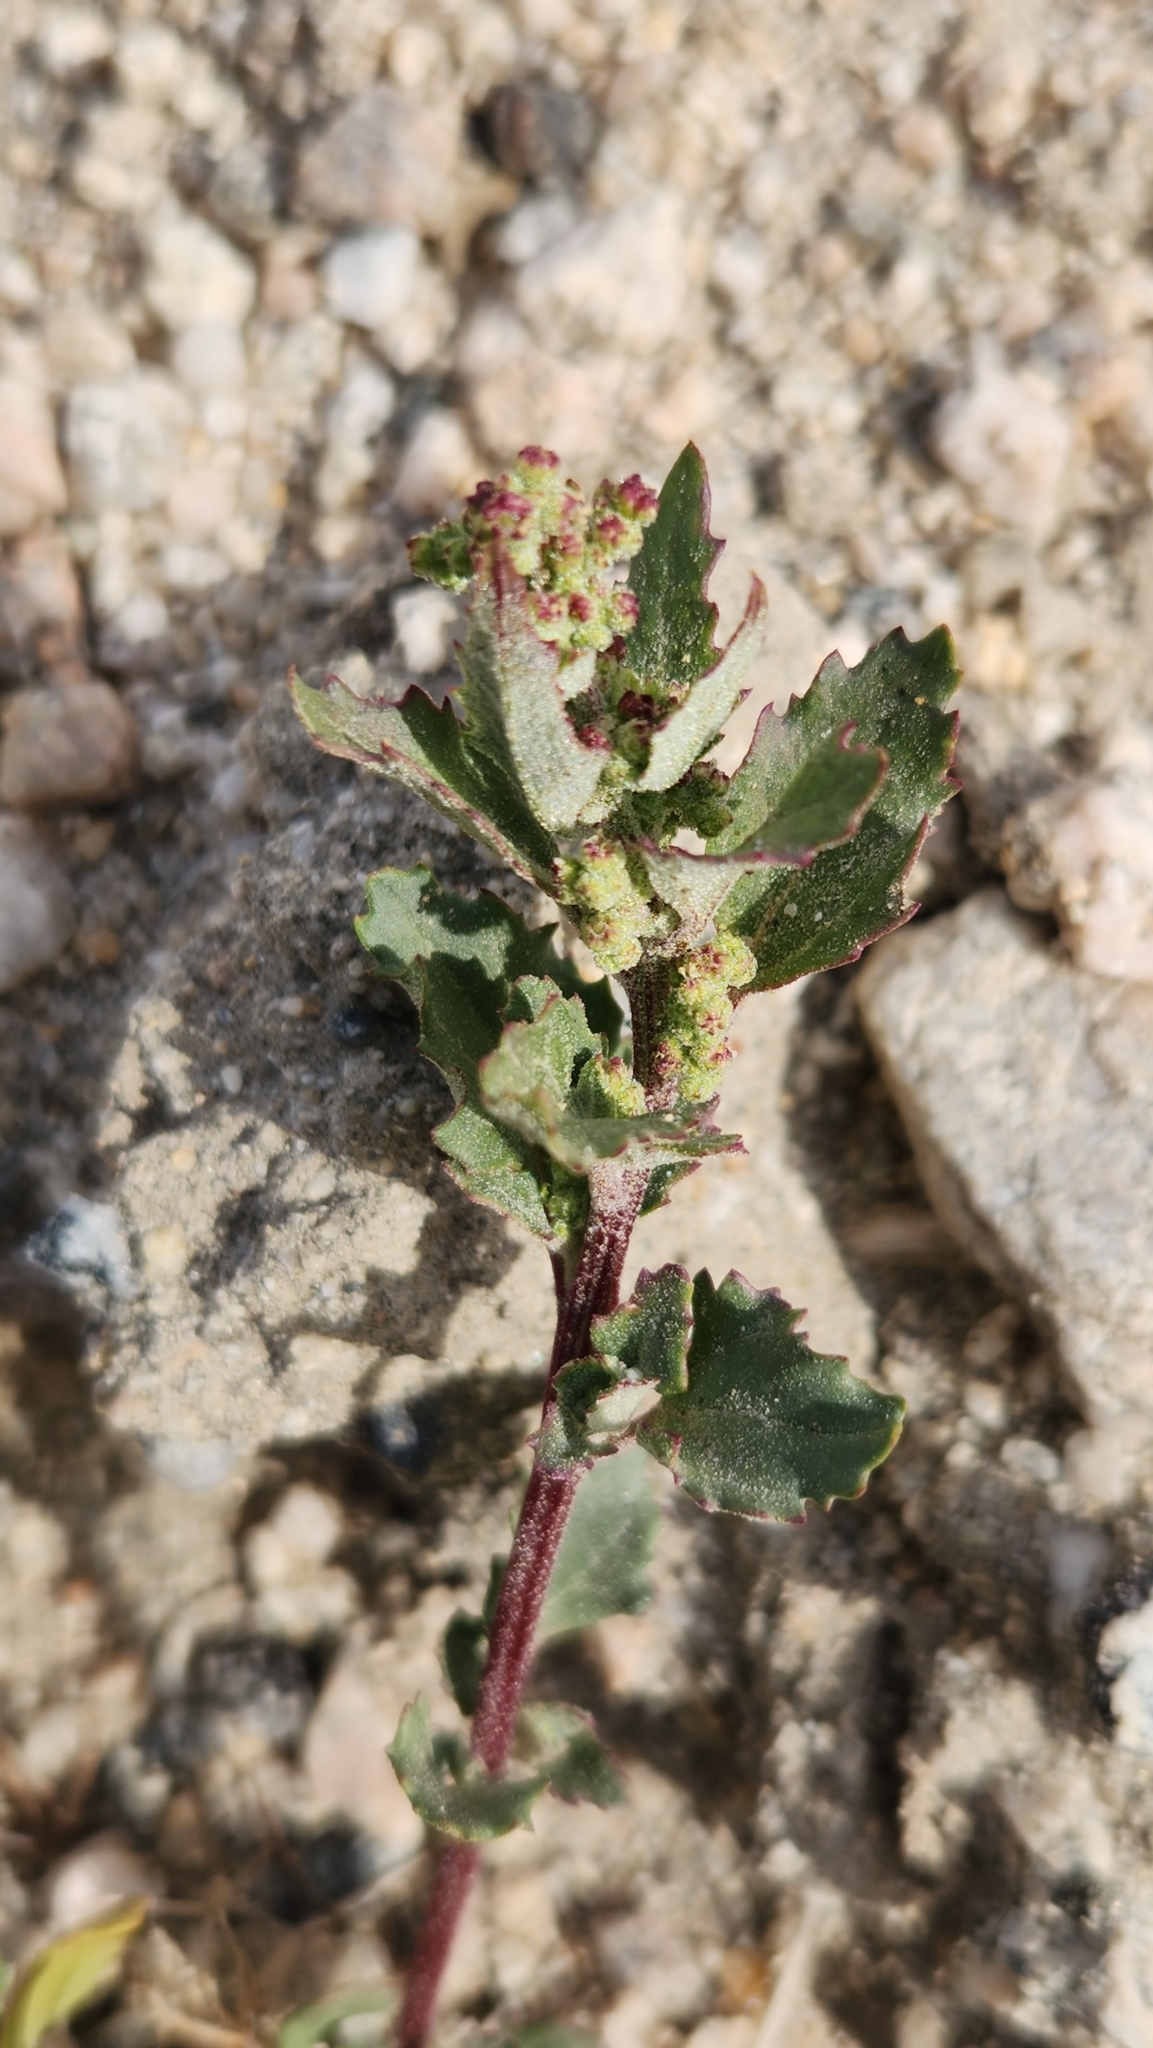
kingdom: Plantae
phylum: Tracheophyta
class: Magnoliopsida
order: Caryophyllales
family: Amaranthaceae
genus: Chenopodiastrum
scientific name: Chenopodiastrum murale
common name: Sowbane
